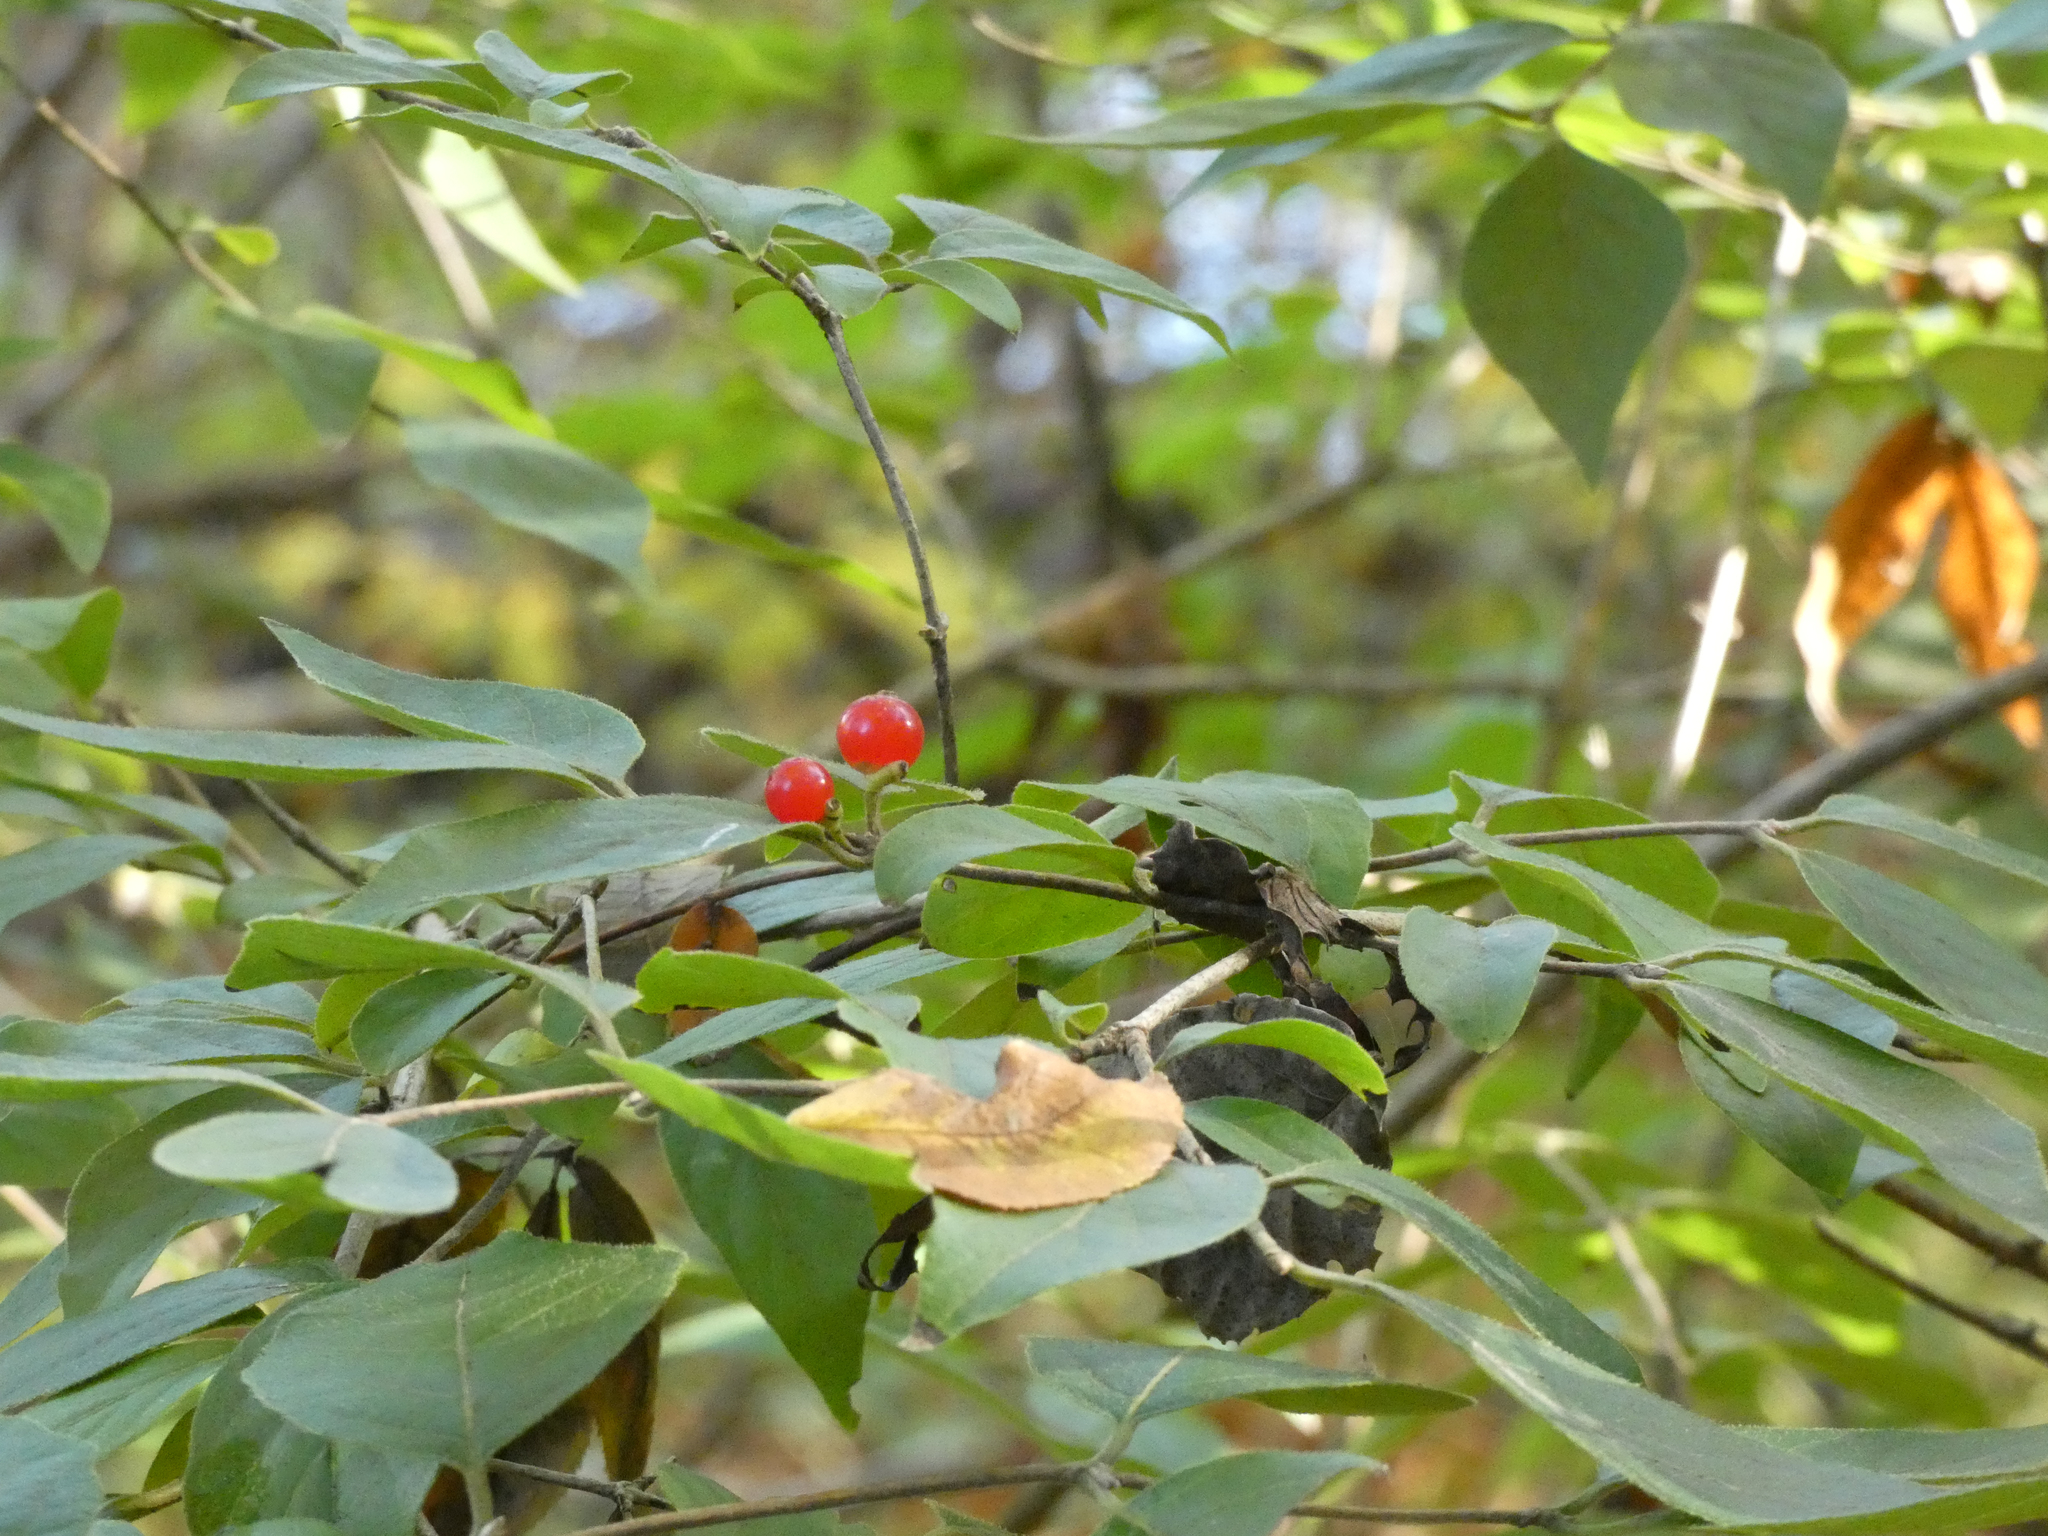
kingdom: Plantae
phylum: Tracheophyta
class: Magnoliopsida
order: Dipsacales
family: Caprifoliaceae
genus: Lonicera
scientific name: Lonicera maackii
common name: Amur honeysuckle
